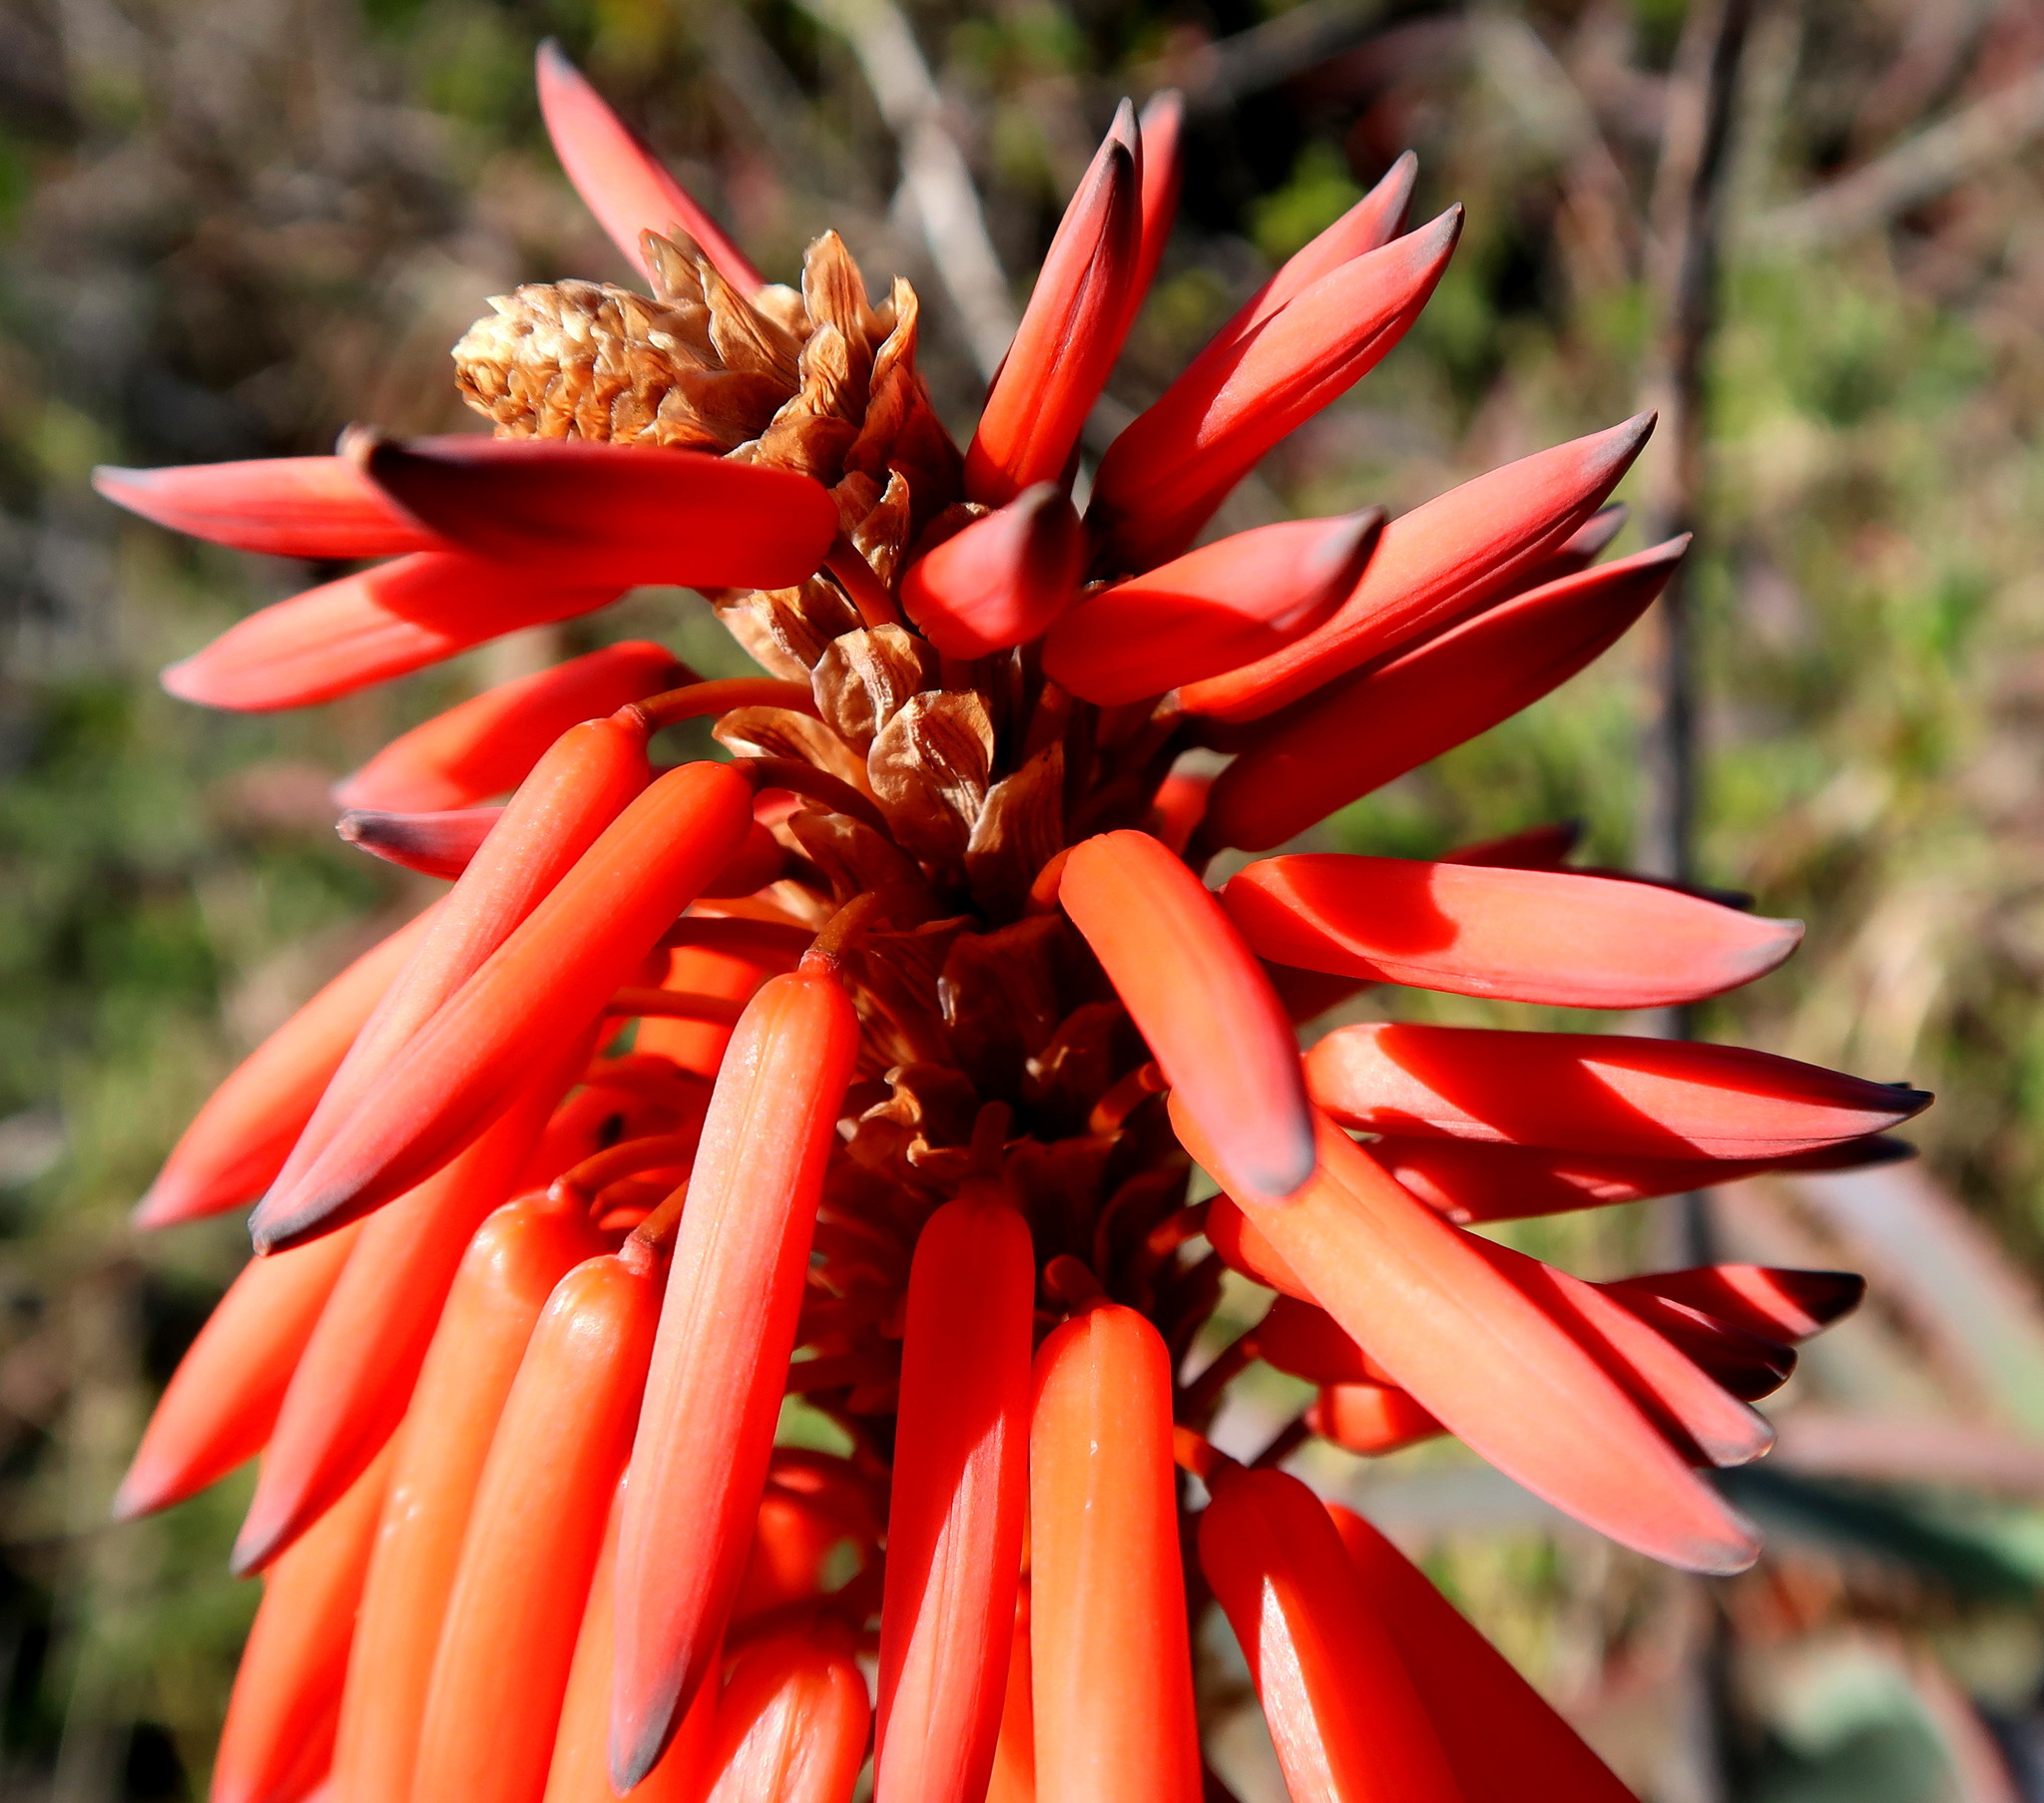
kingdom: Plantae
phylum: Tracheophyta
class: Liliopsida
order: Asparagales
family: Asphodelaceae
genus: Aloe
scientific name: Aloe arborescens
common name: Candelabra aloe
